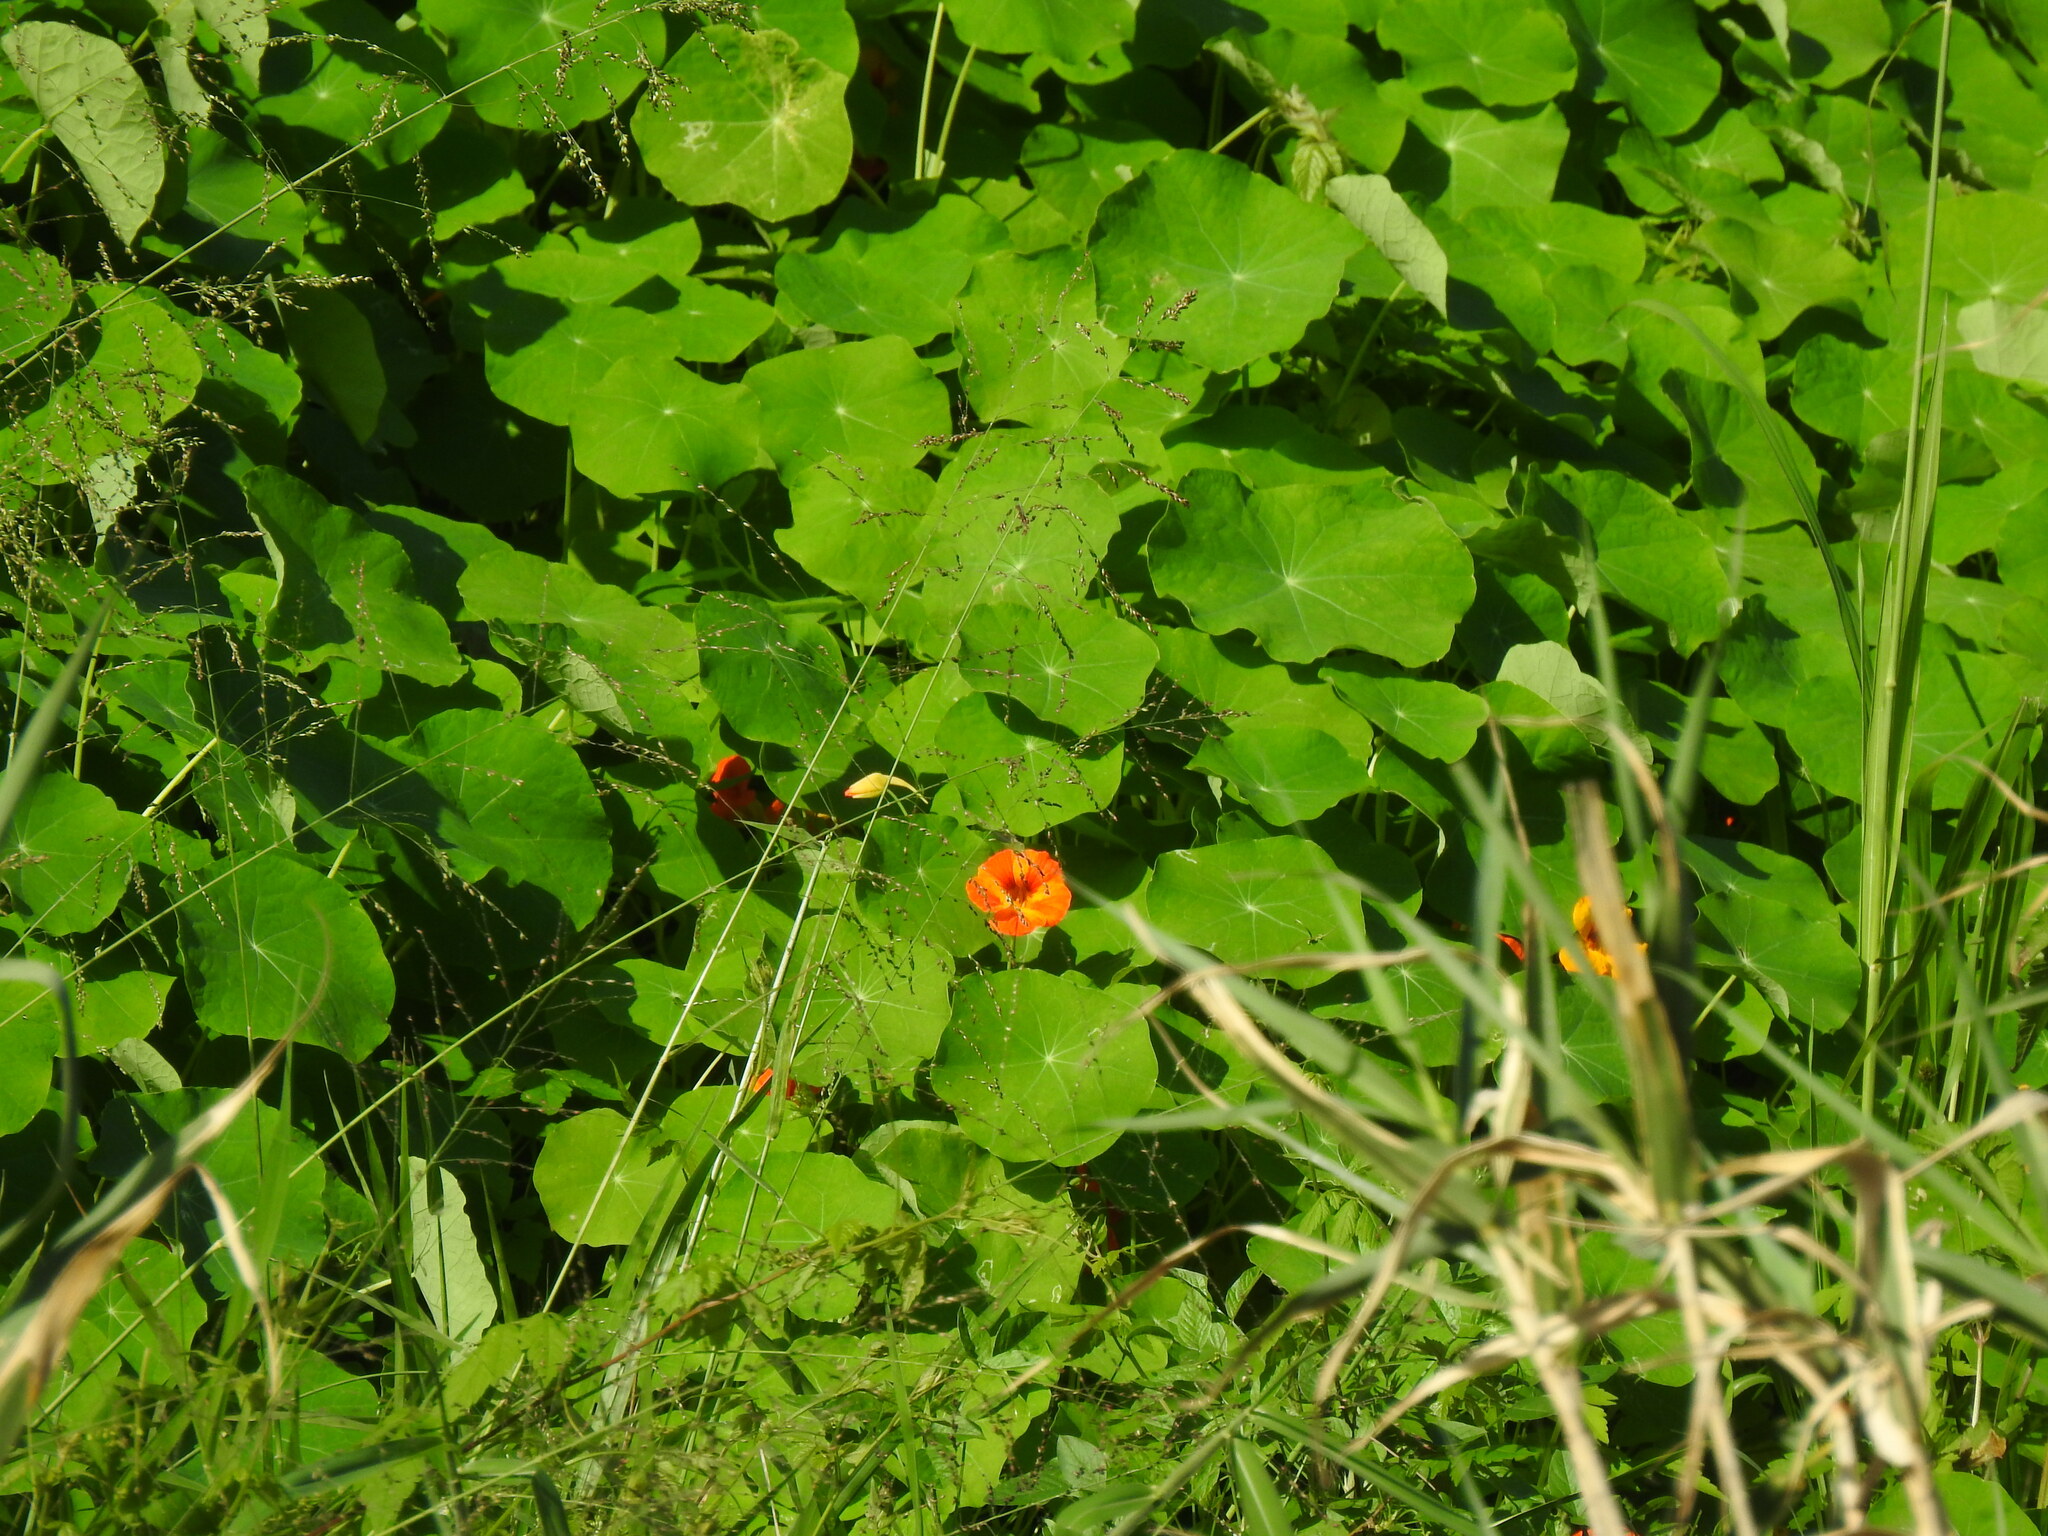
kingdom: Plantae
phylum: Tracheophyta
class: Magnoliopsida
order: Brassicales
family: Tropaeolaceae
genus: Tropaeolum
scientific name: Tropaeolum majus
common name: Nasturtium
